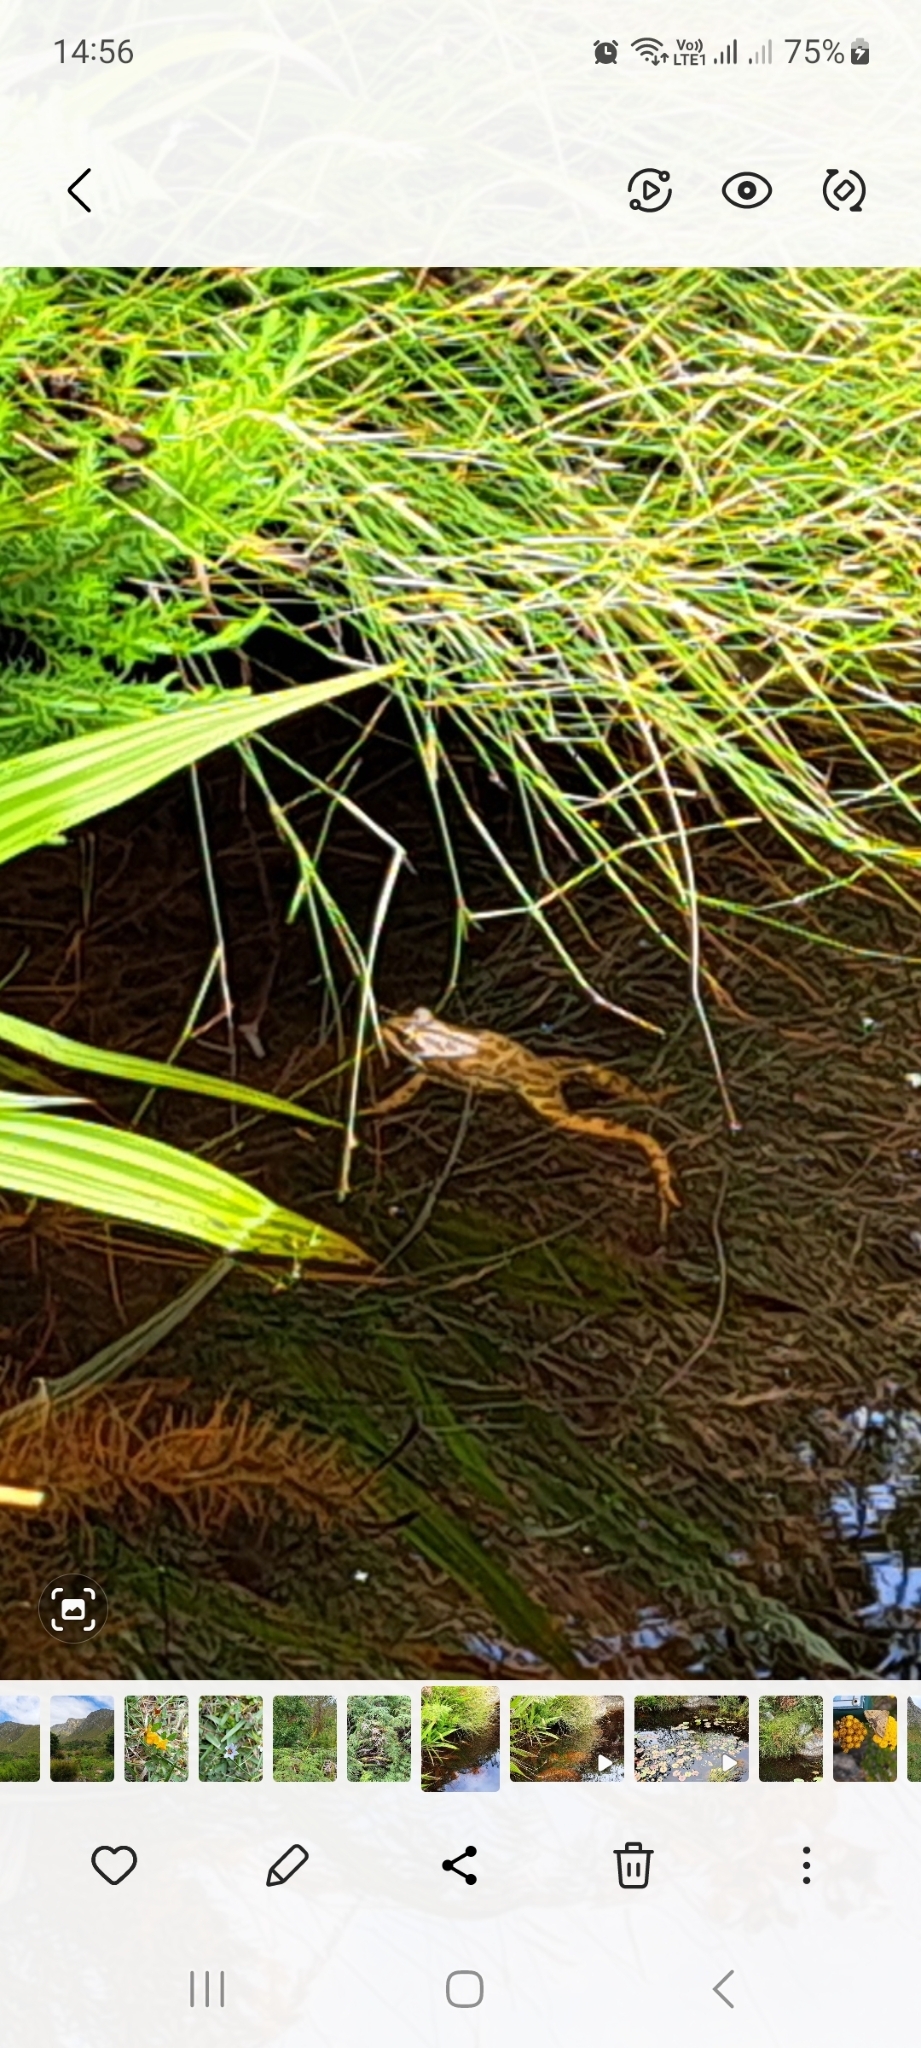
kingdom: Animalia
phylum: Chordata
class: Amphibia
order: Anura
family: Pyxicephalidae
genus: Amietia
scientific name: Amietia fuscigula
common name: Cape rana
